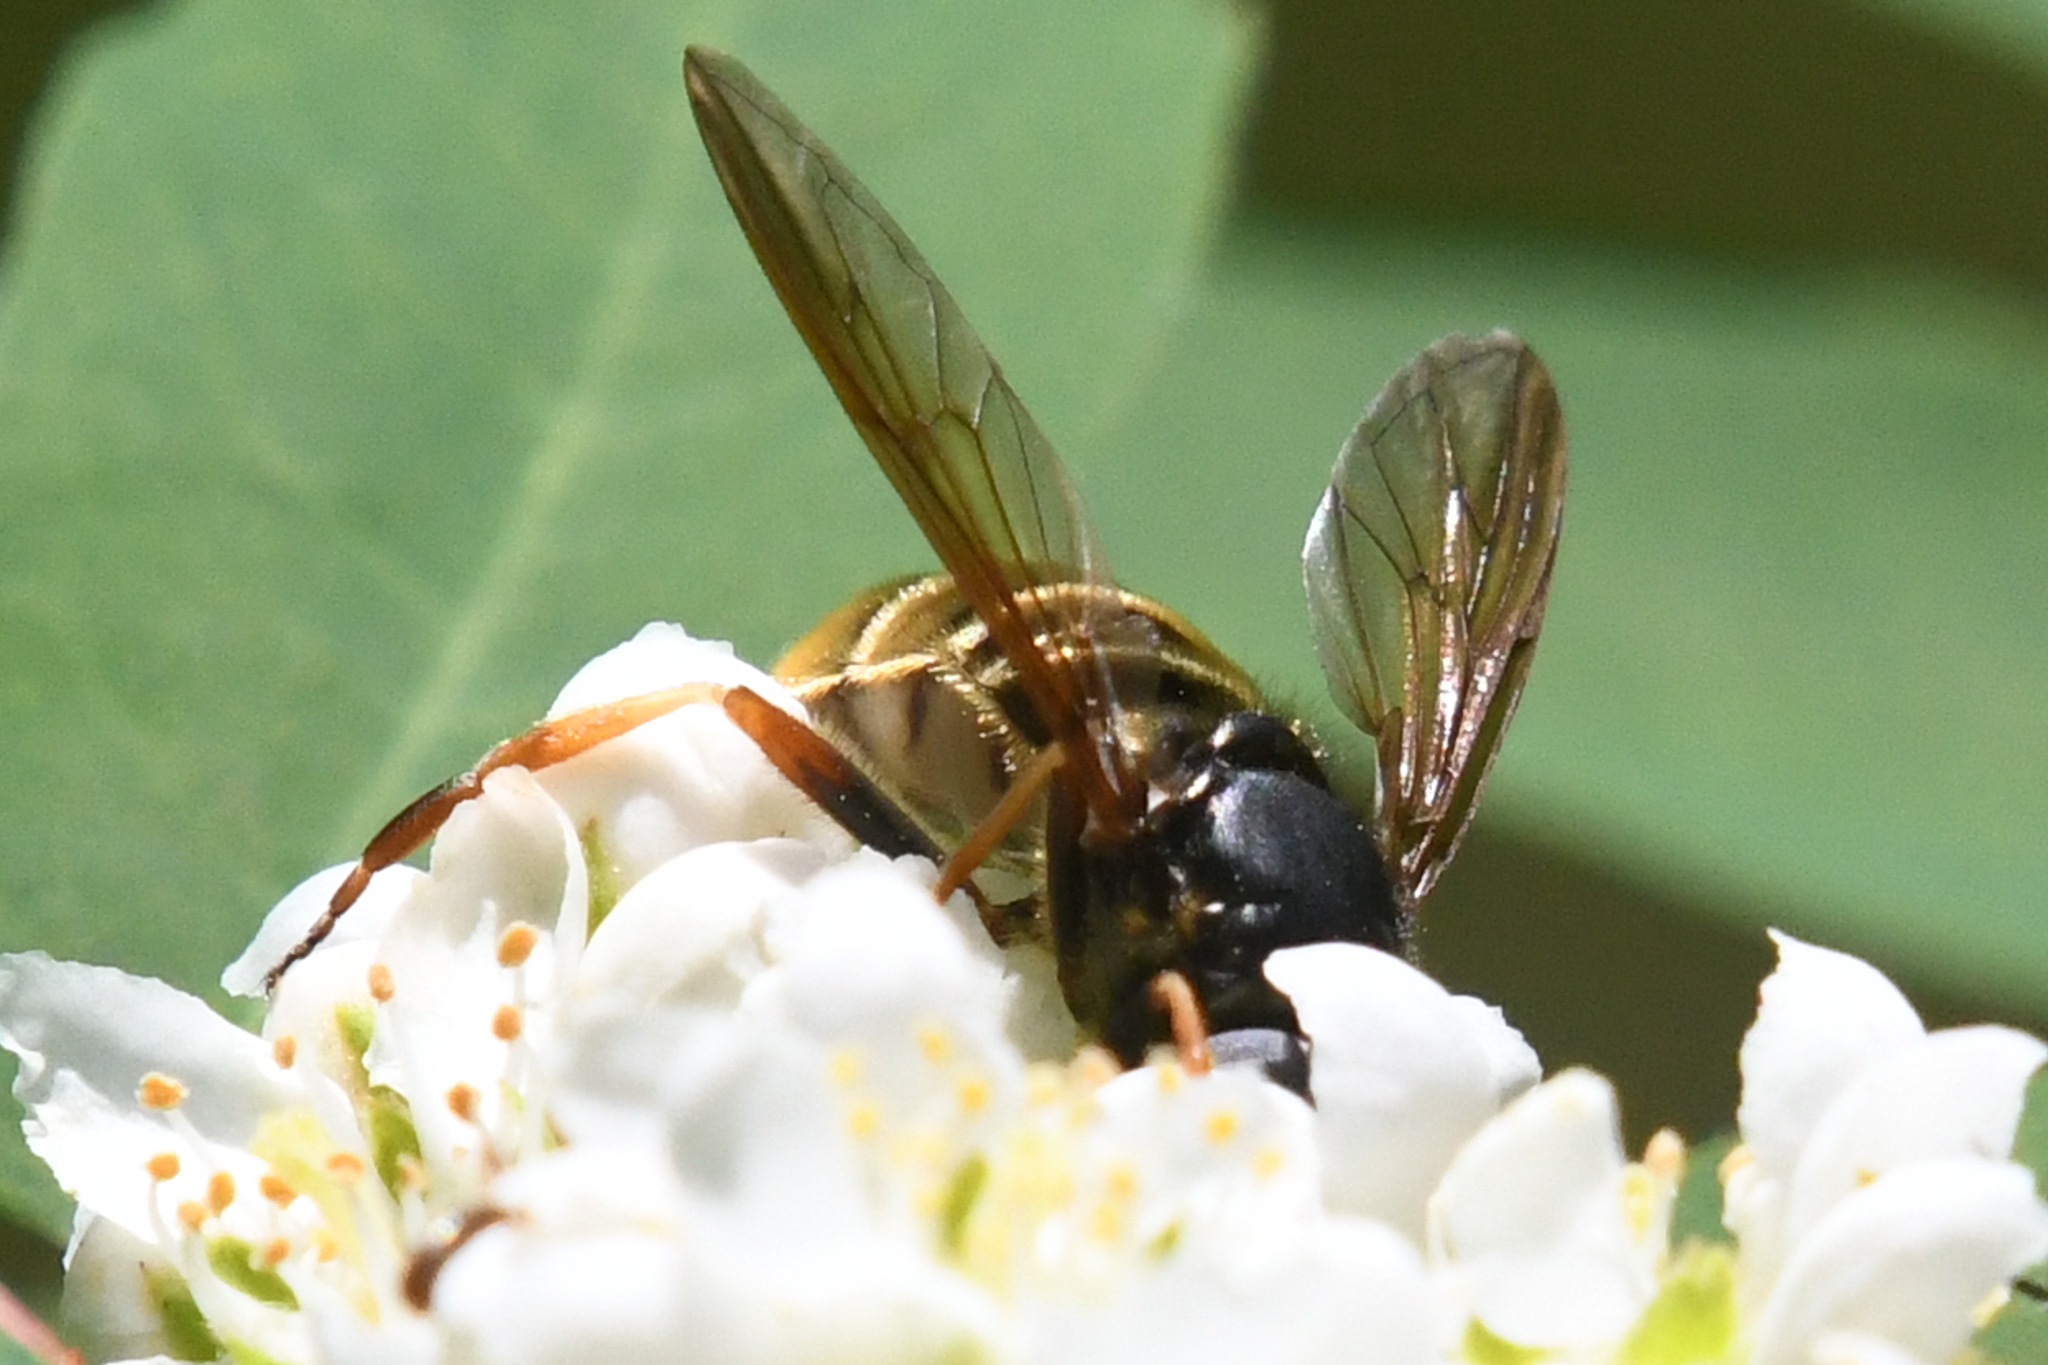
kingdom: Animalia
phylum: Arthropoda
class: Insecta
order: Diptera
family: Syrphidae
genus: Hadromyia
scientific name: Hadromyia aldrichi
